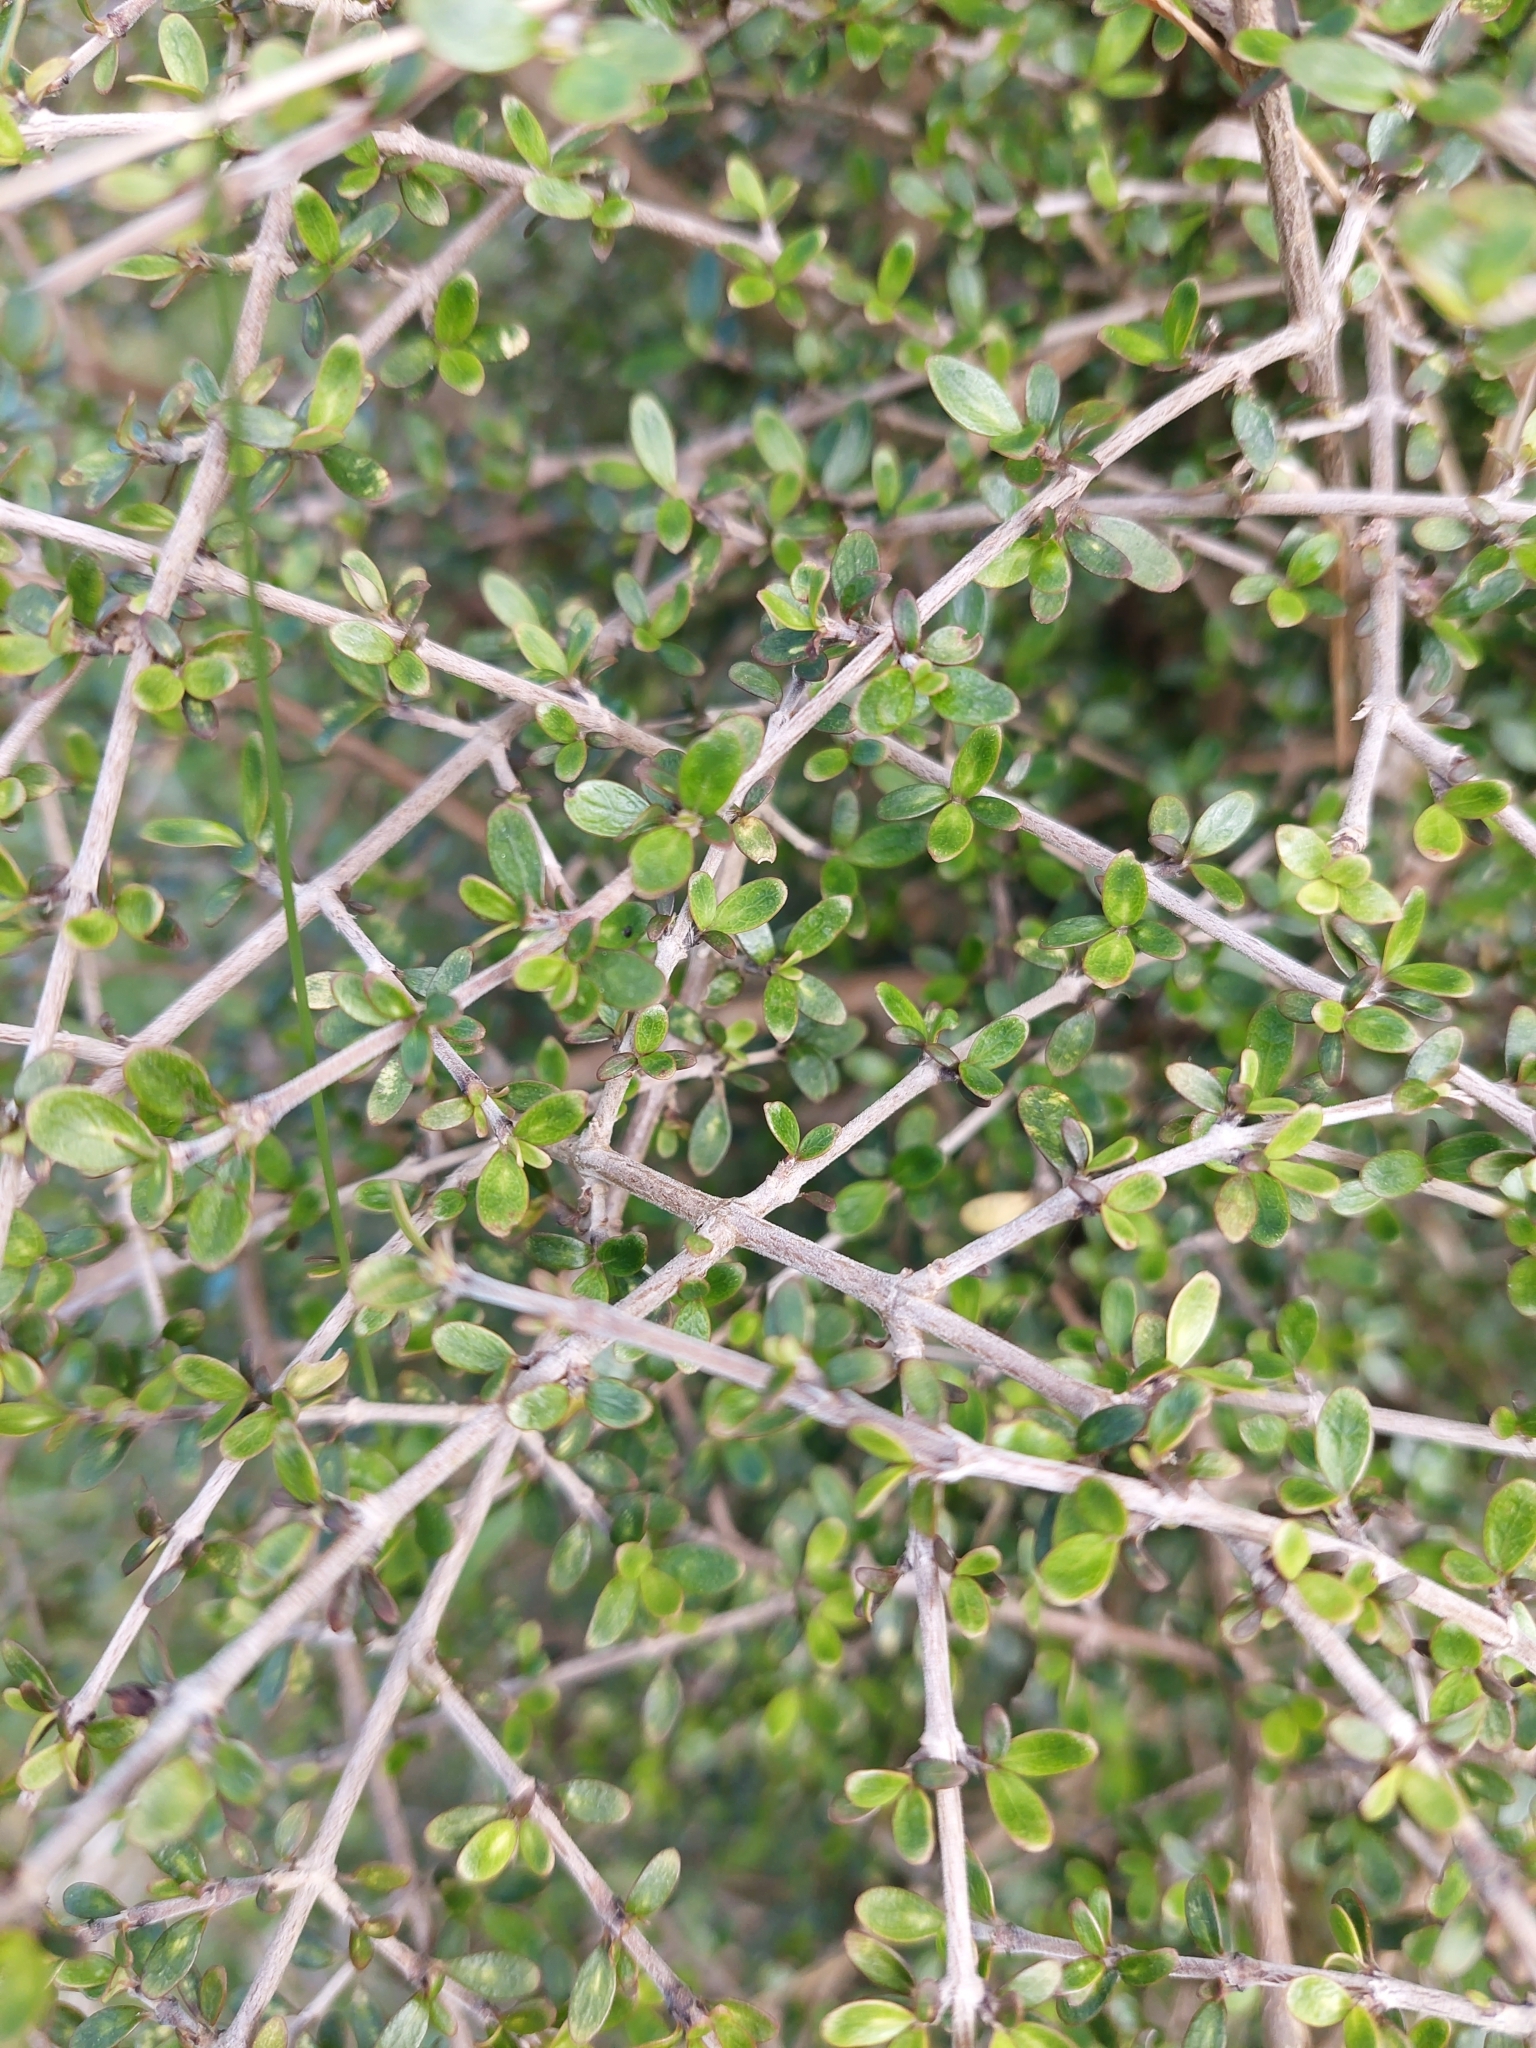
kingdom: Plantae
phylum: Tracheophyta
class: Magnoliopsida
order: Gentianales
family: Rubiaceae
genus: Coprosma
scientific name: Coprosma propinqua
